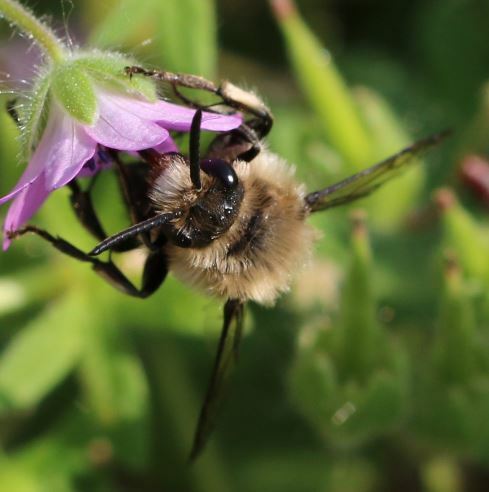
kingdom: Animalia
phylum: Arthropoda
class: Insecta
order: Hymenoptera
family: Apidae
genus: Melecta
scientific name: Melecta albifrons
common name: Common mourning bee
